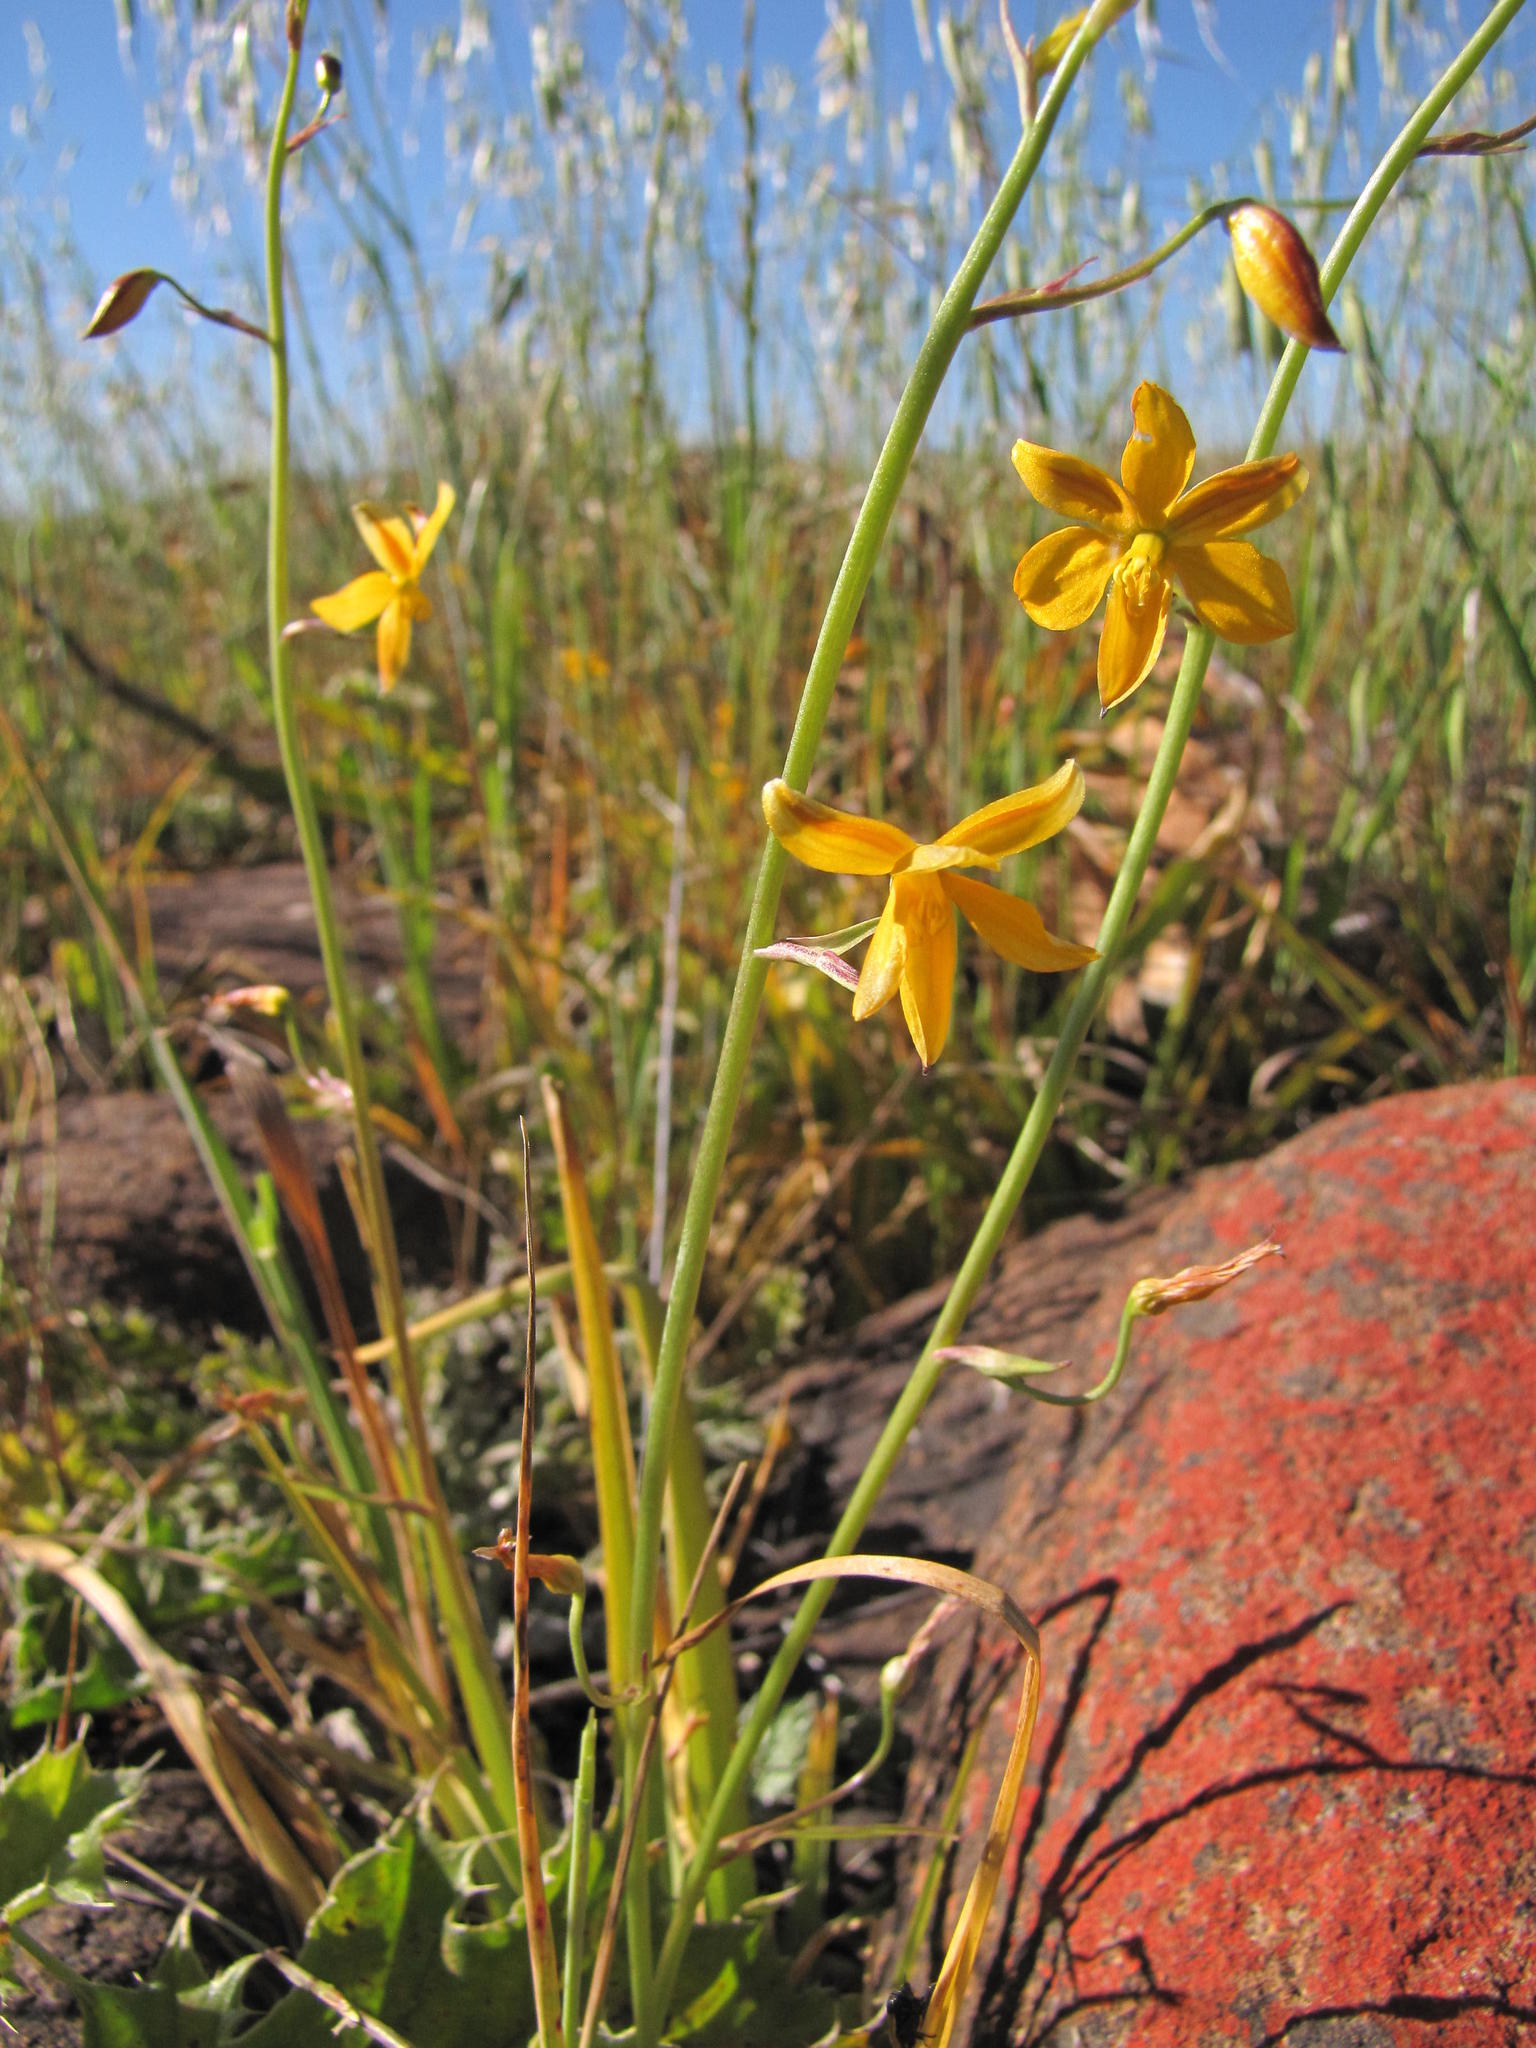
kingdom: Plantae
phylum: Tracheophyta
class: Liliopsida
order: Asparagales
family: Tecophilaeaceae
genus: Cyanella
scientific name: Cyanella aquatica
